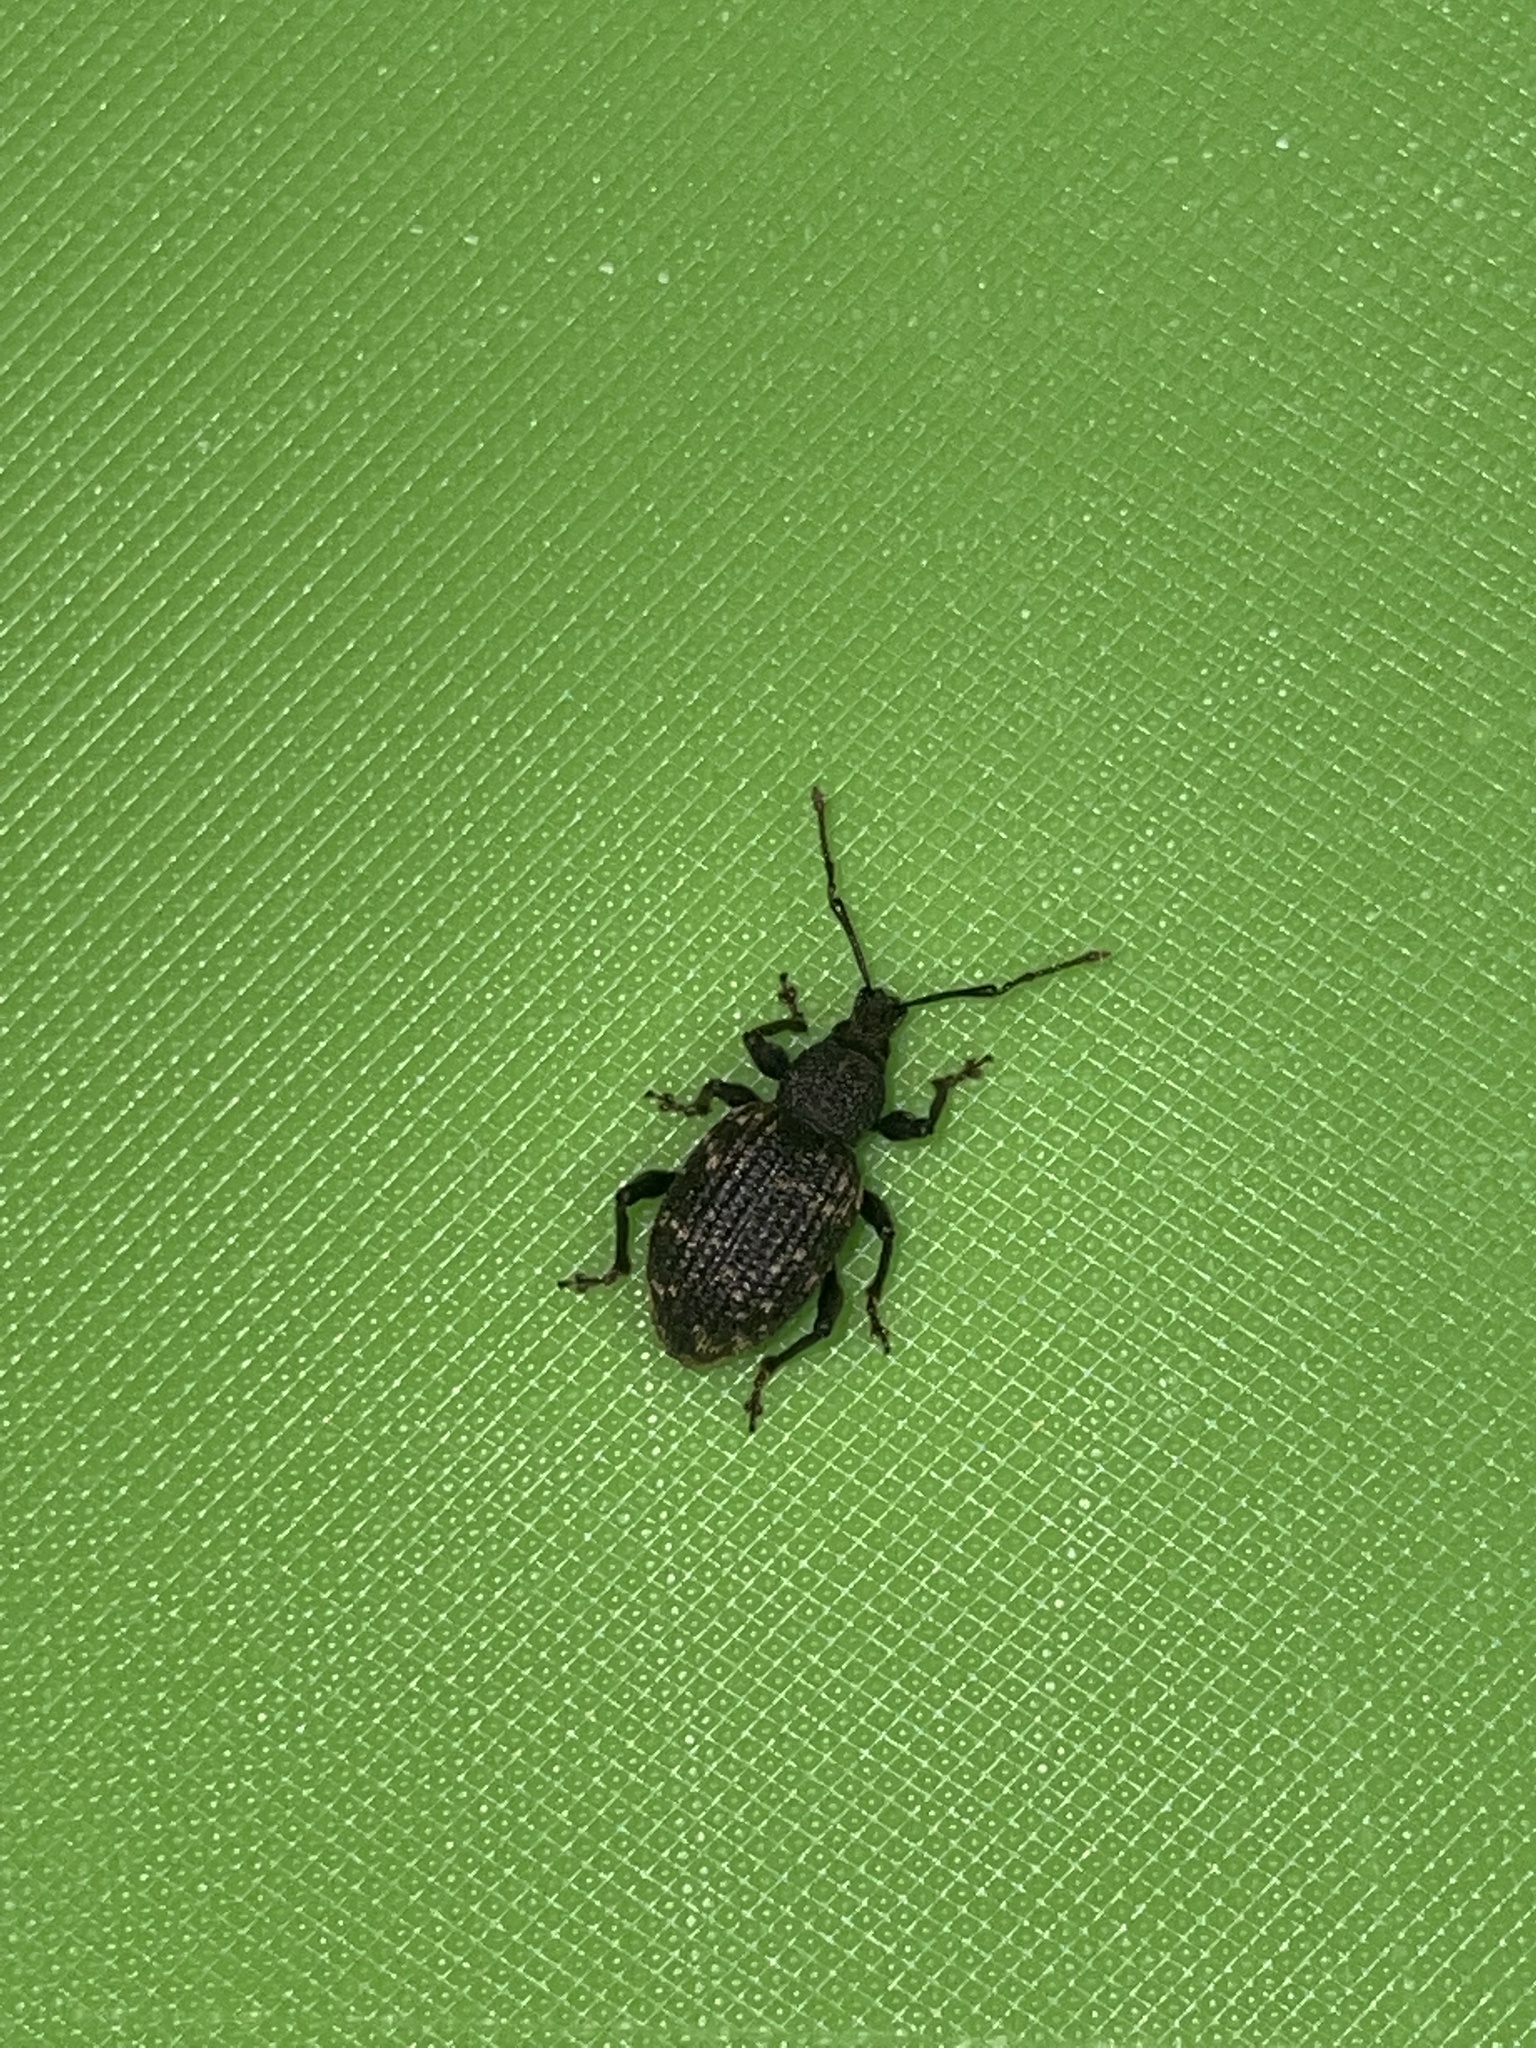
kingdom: Animalia
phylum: Arthropoda
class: Insecta
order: Coleoptera
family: Curculionidae
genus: Otiorhynchus
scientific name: Otiorhynchus sulcatus
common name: Black vine weevil
